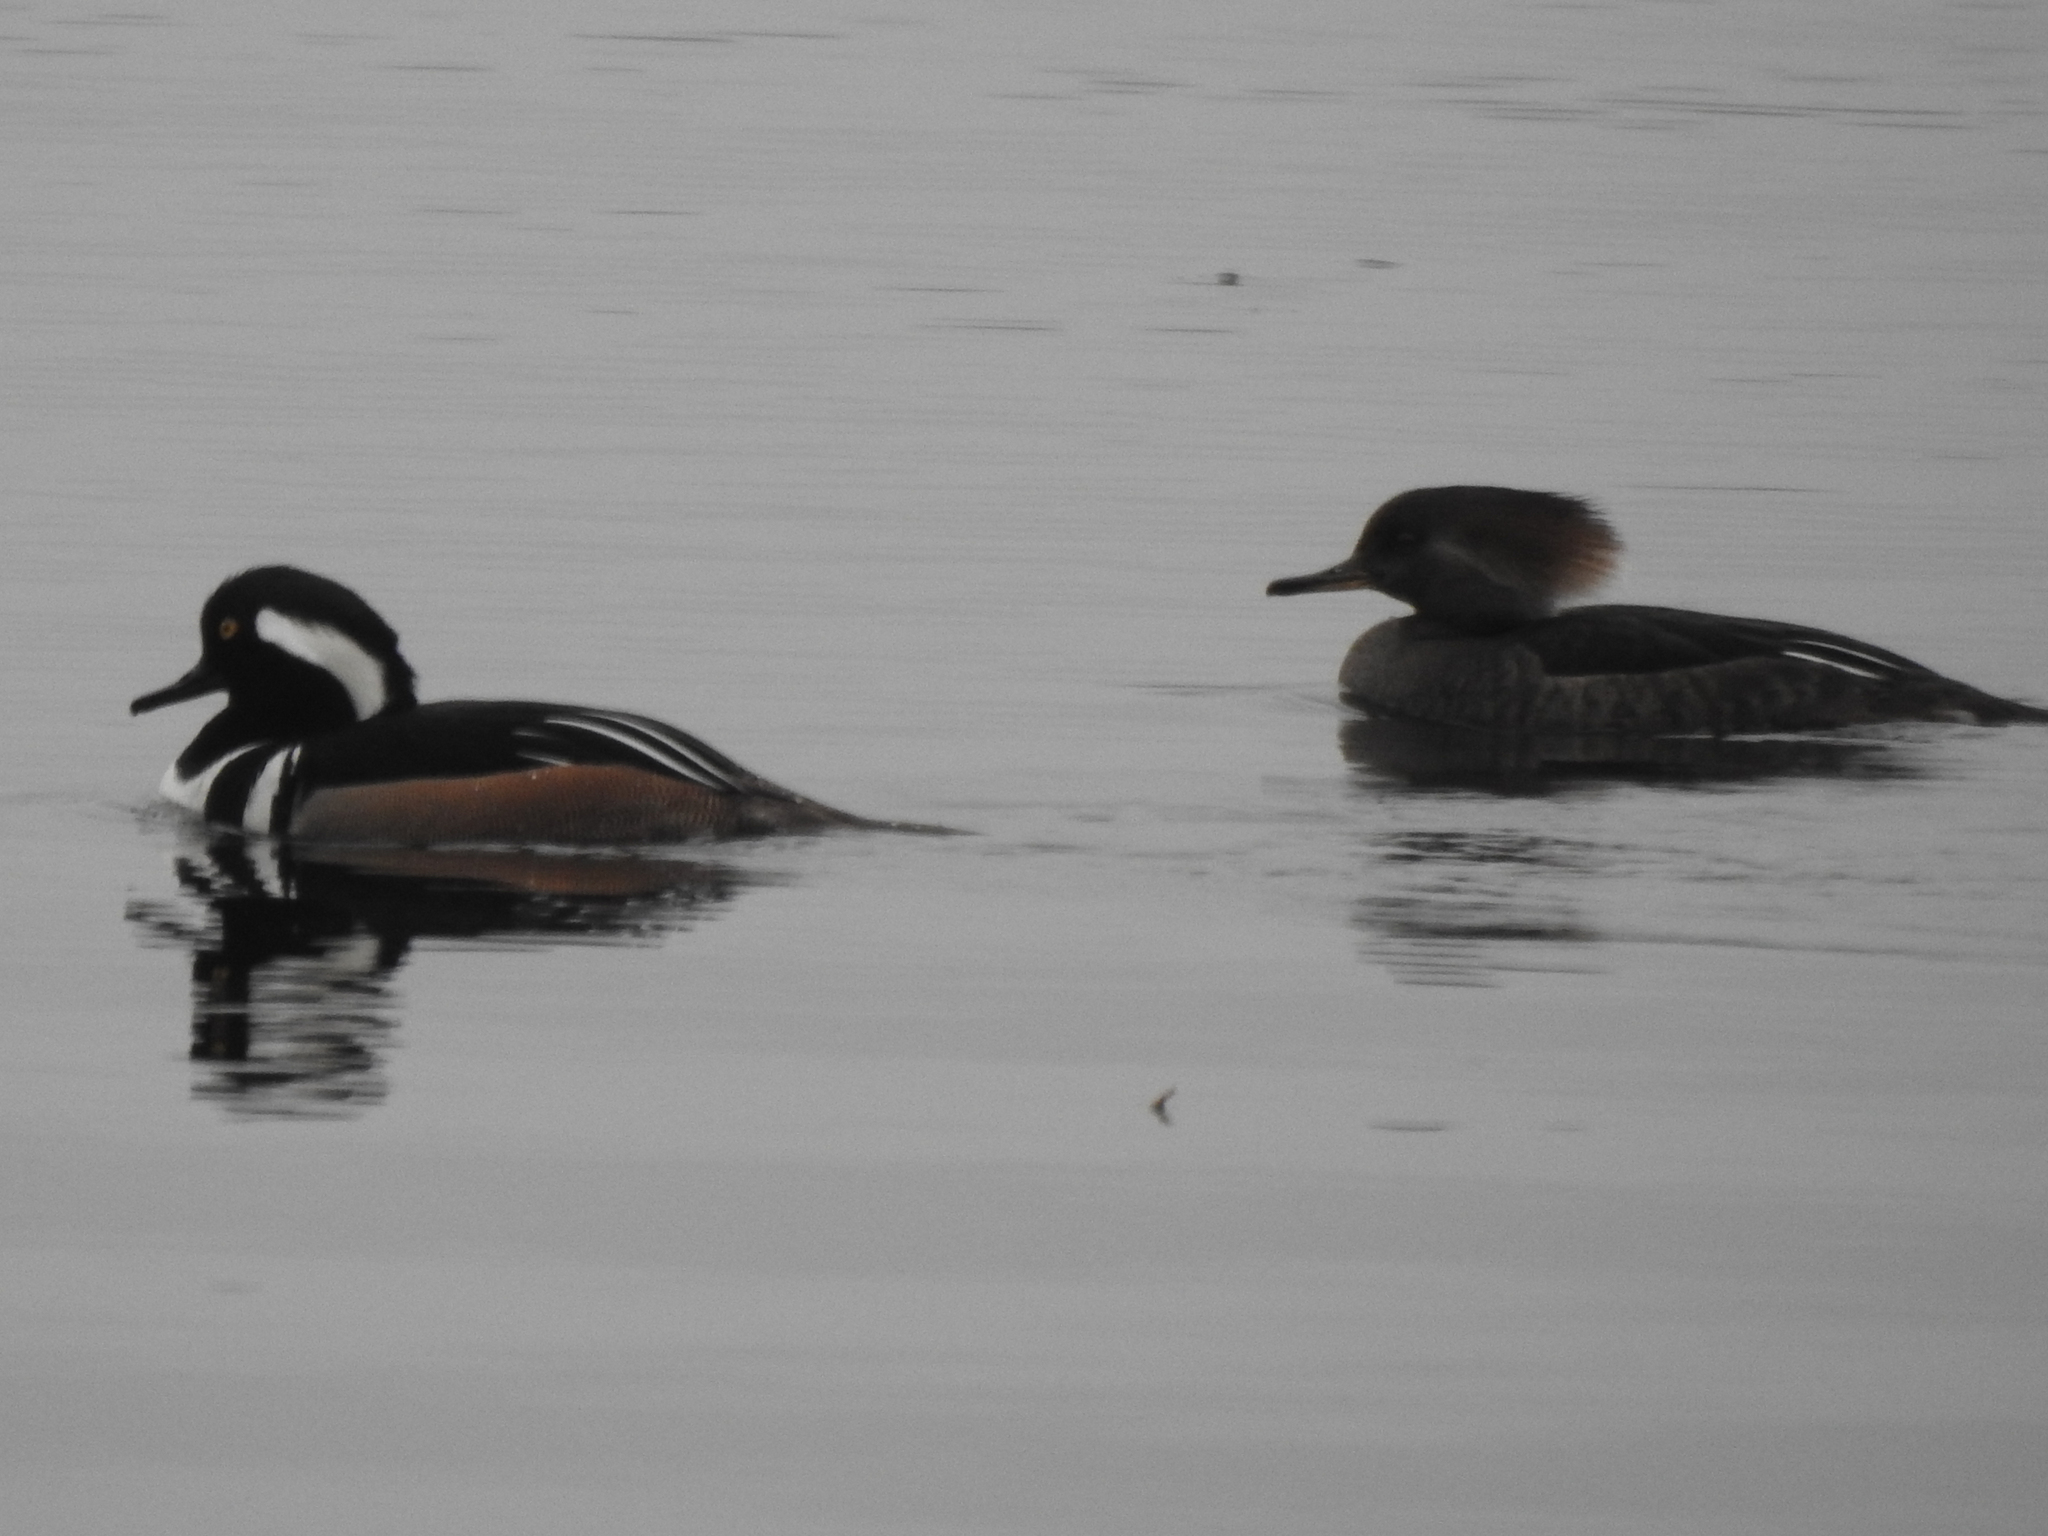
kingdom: Animalia
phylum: Chordata
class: Aves
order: Anseriformes
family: Anatidae
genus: Lophodytes
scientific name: Lophodytes cucullatus
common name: Hooded merganser
